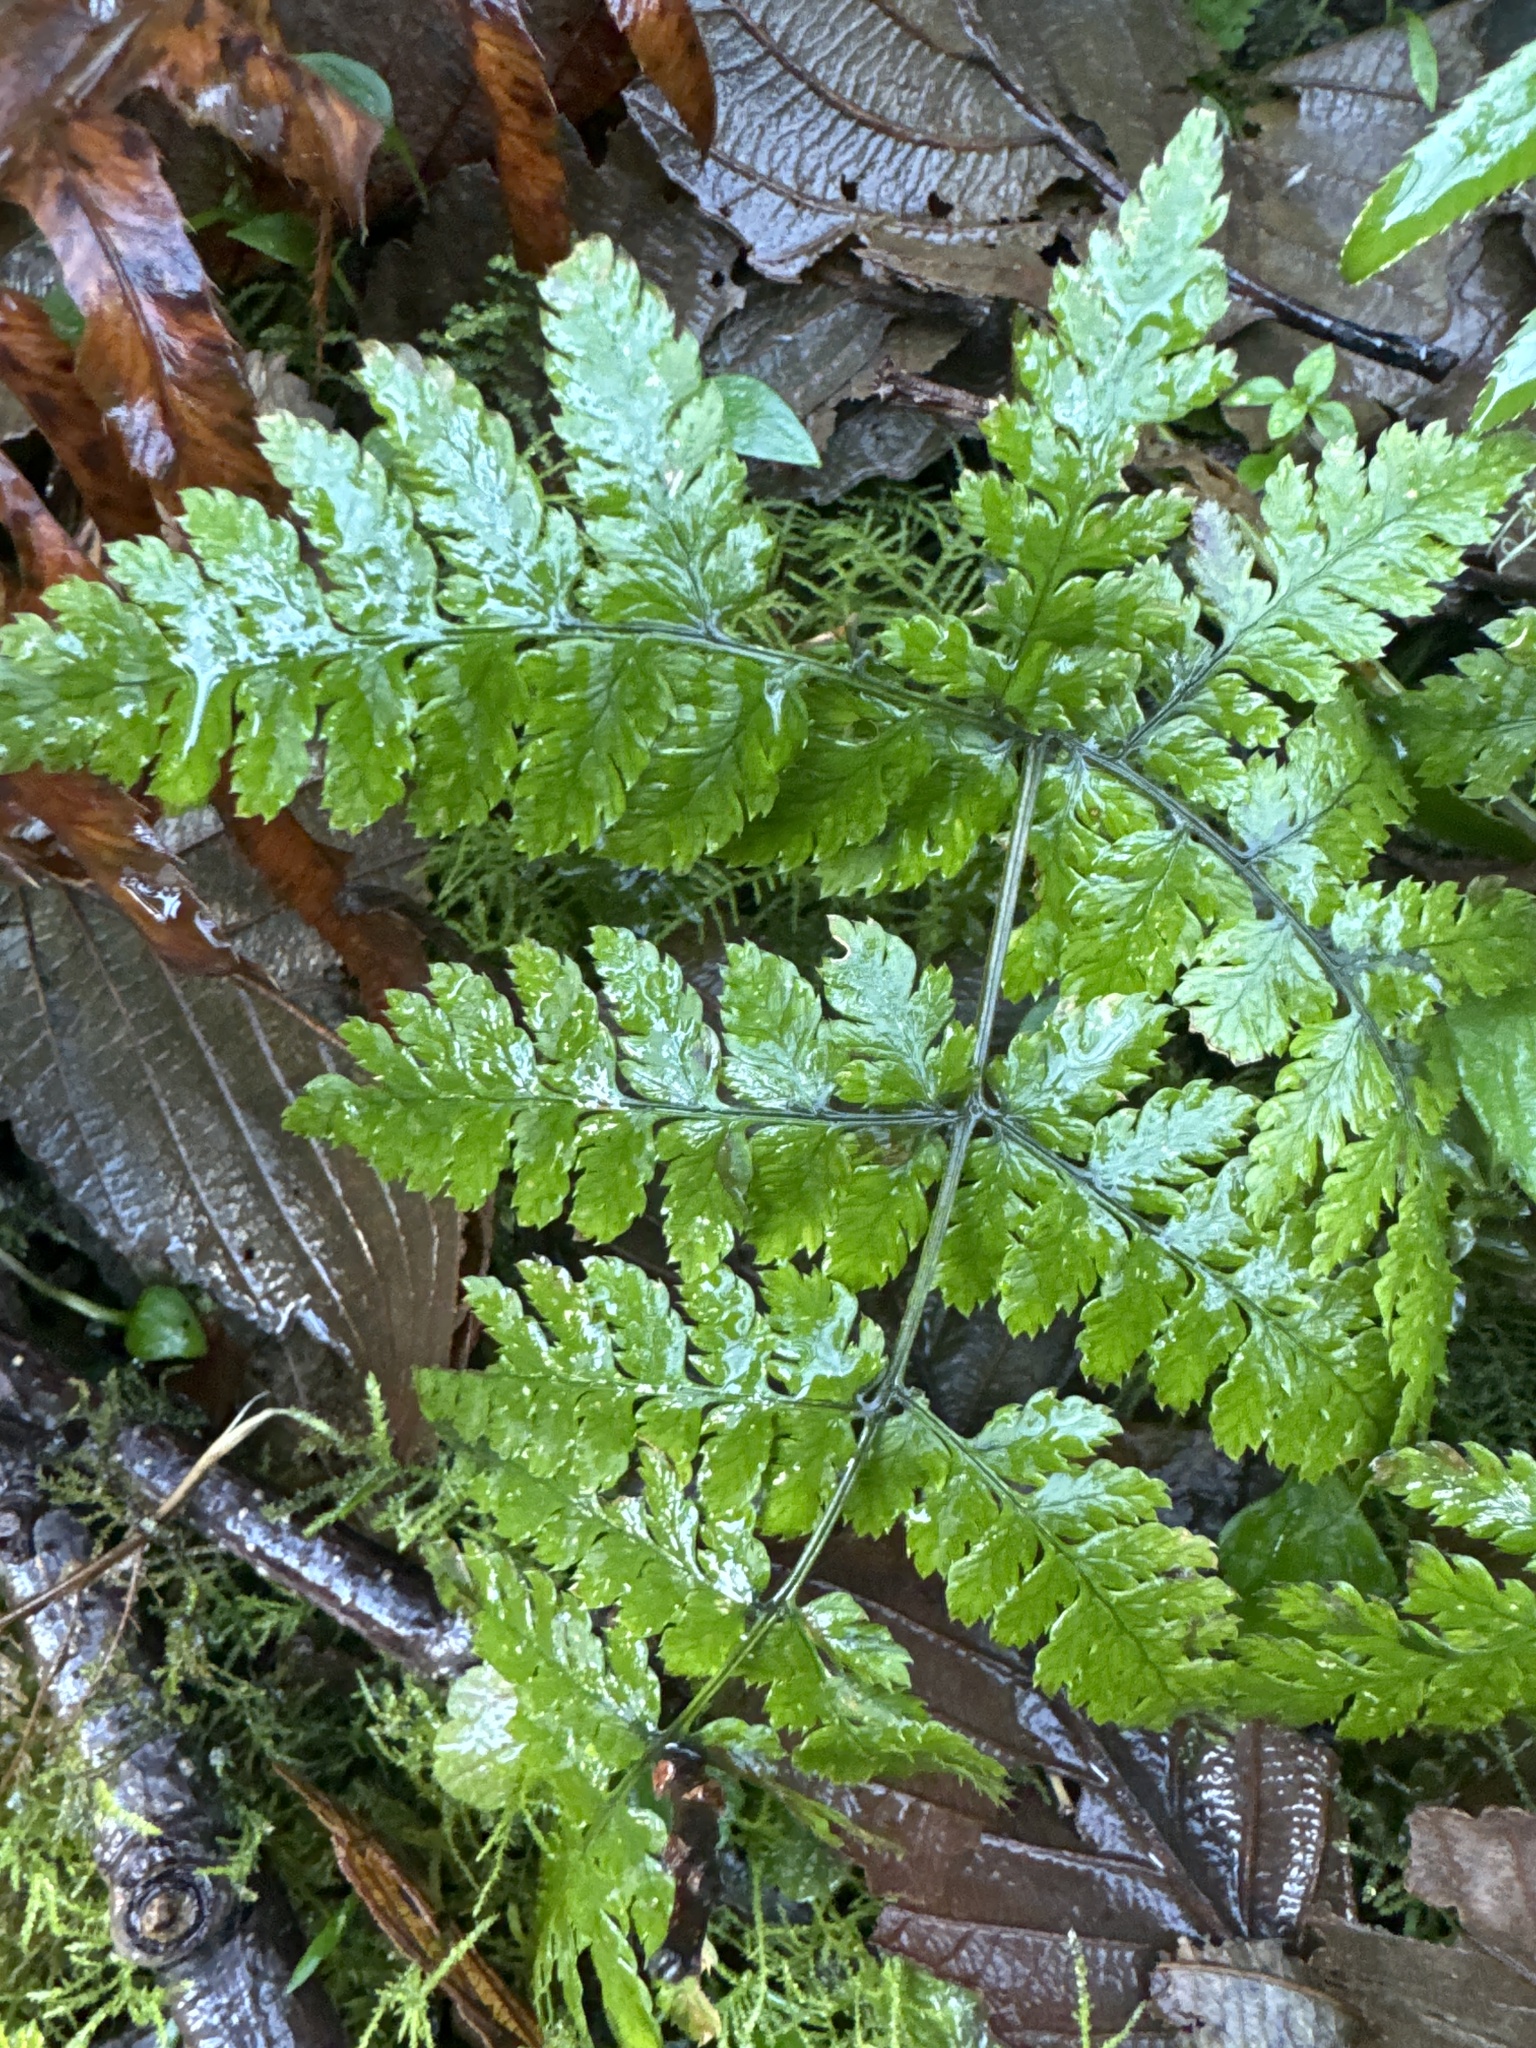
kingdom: Plantae
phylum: Tracheophyta
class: Polypodiopsida
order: Polypodiales
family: Dryopteridaceae
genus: Dryopteris
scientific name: Dryopteris expansa
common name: Northern buckler fern
